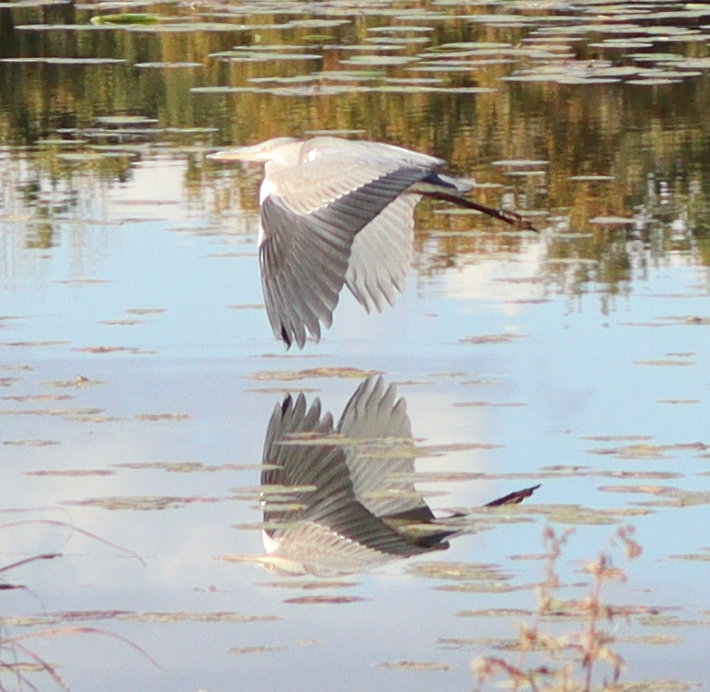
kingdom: Animalia
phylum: Chordata
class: Aves
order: Pelecaniformes
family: Ardeidae
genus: Ardea
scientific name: Ardea cinerea
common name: Grey heron
